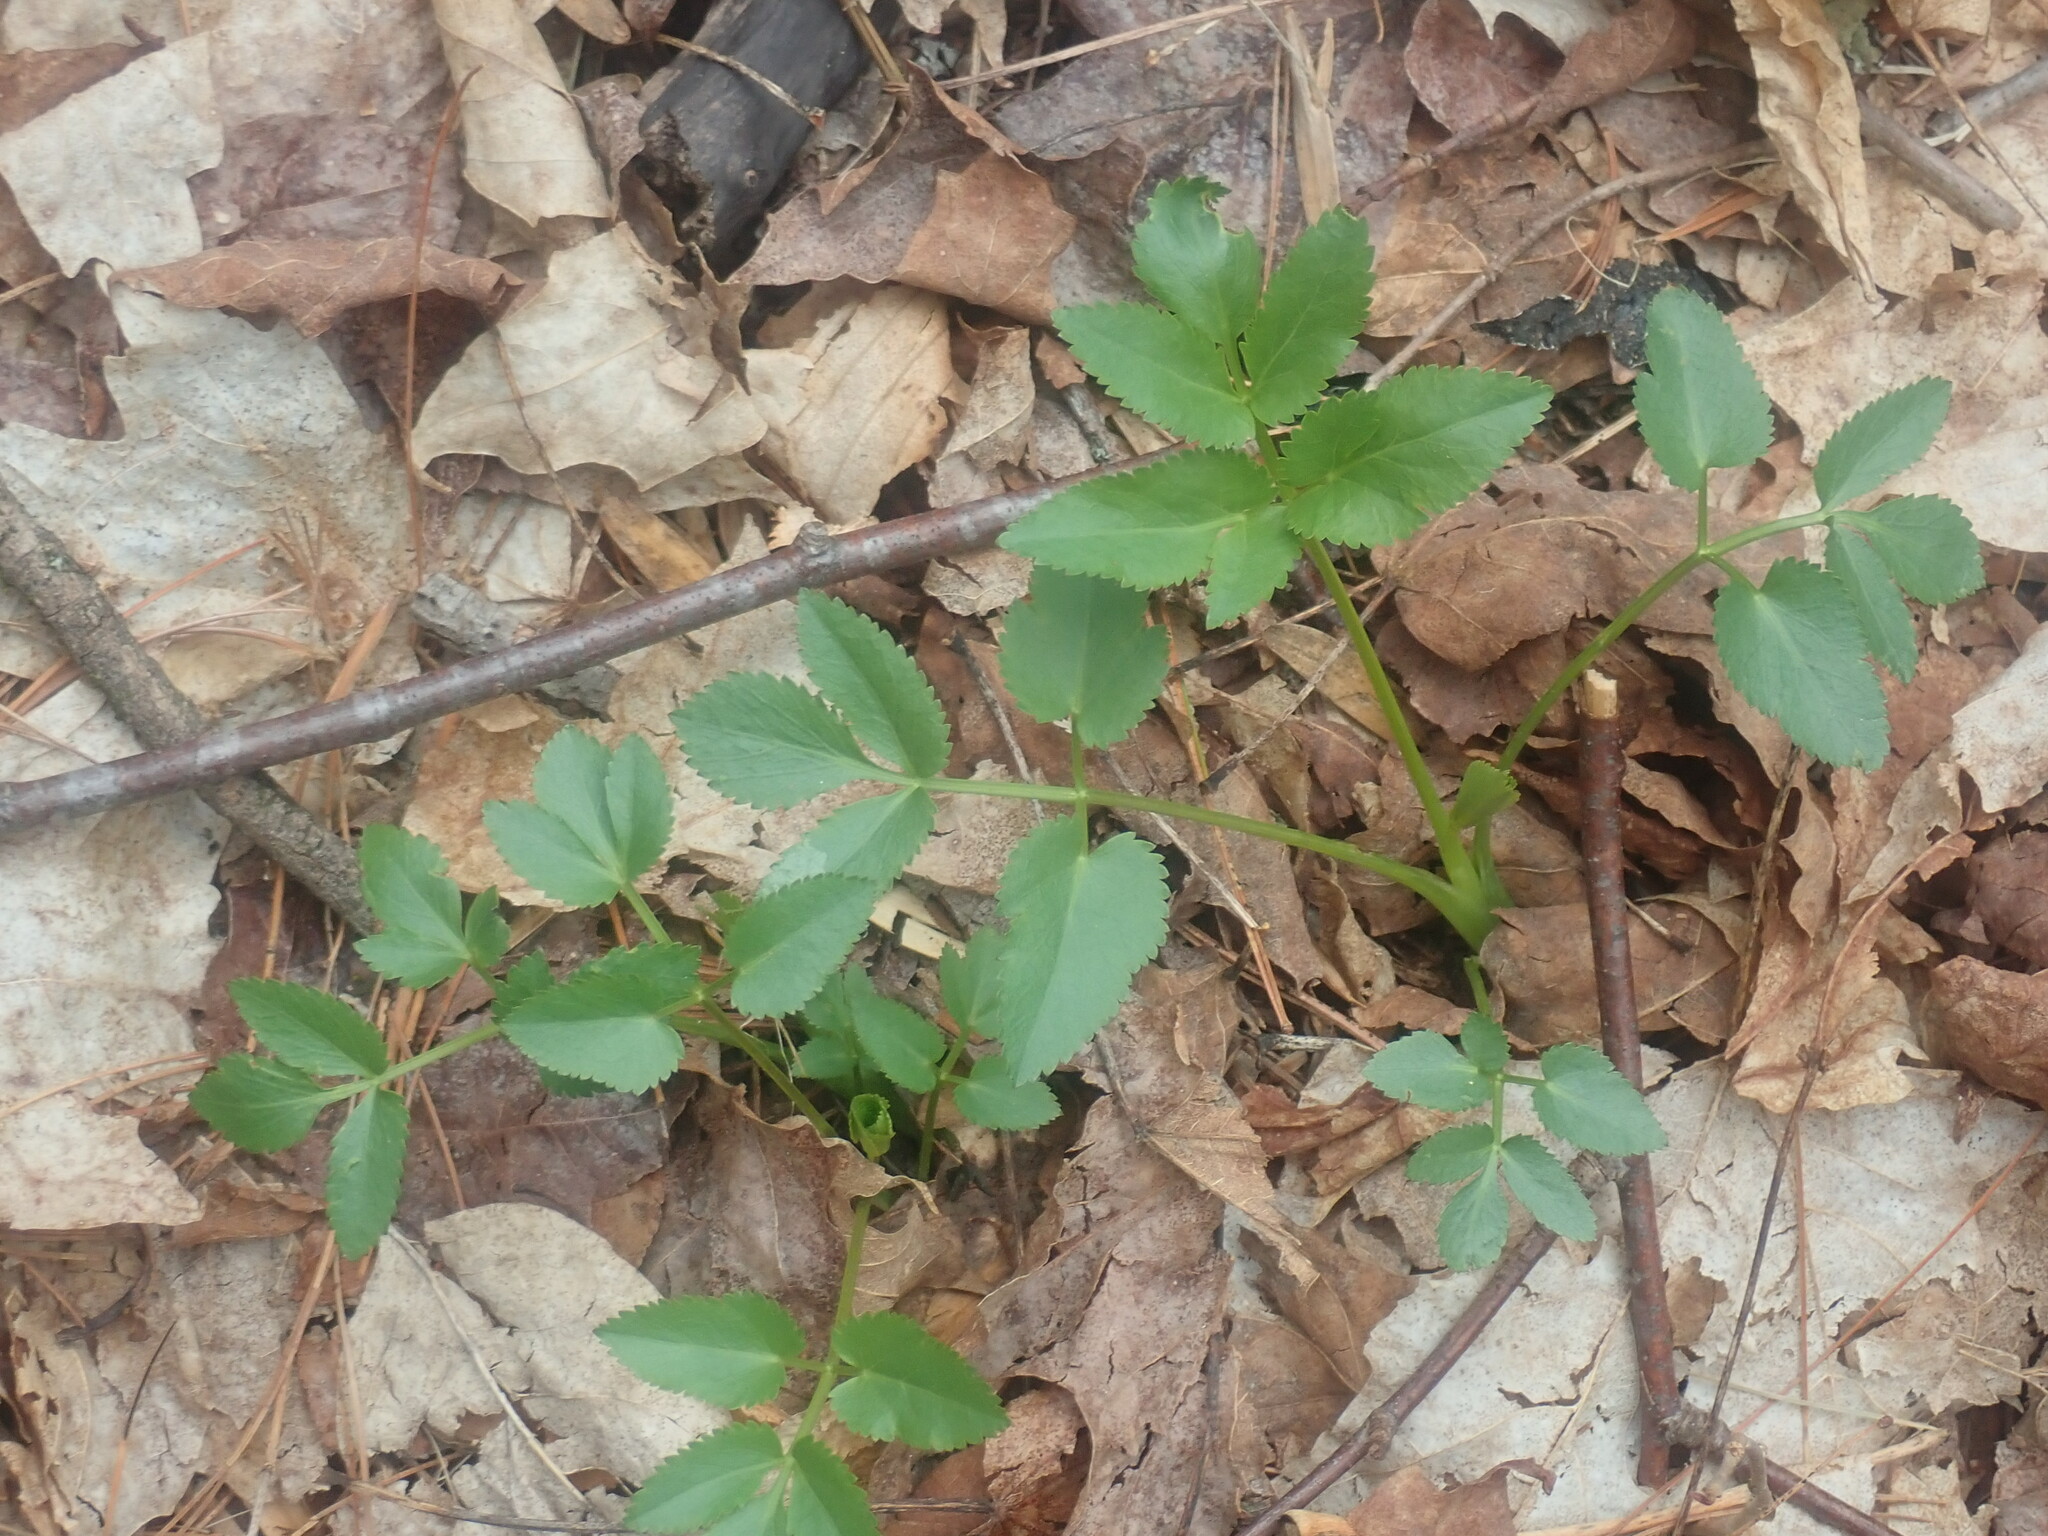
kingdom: Plantae
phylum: Tracheophyta
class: Magnoliopsida
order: Apiales
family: Apiaceae
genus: Zizia
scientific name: Zizia aurea
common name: Golden alexanders
